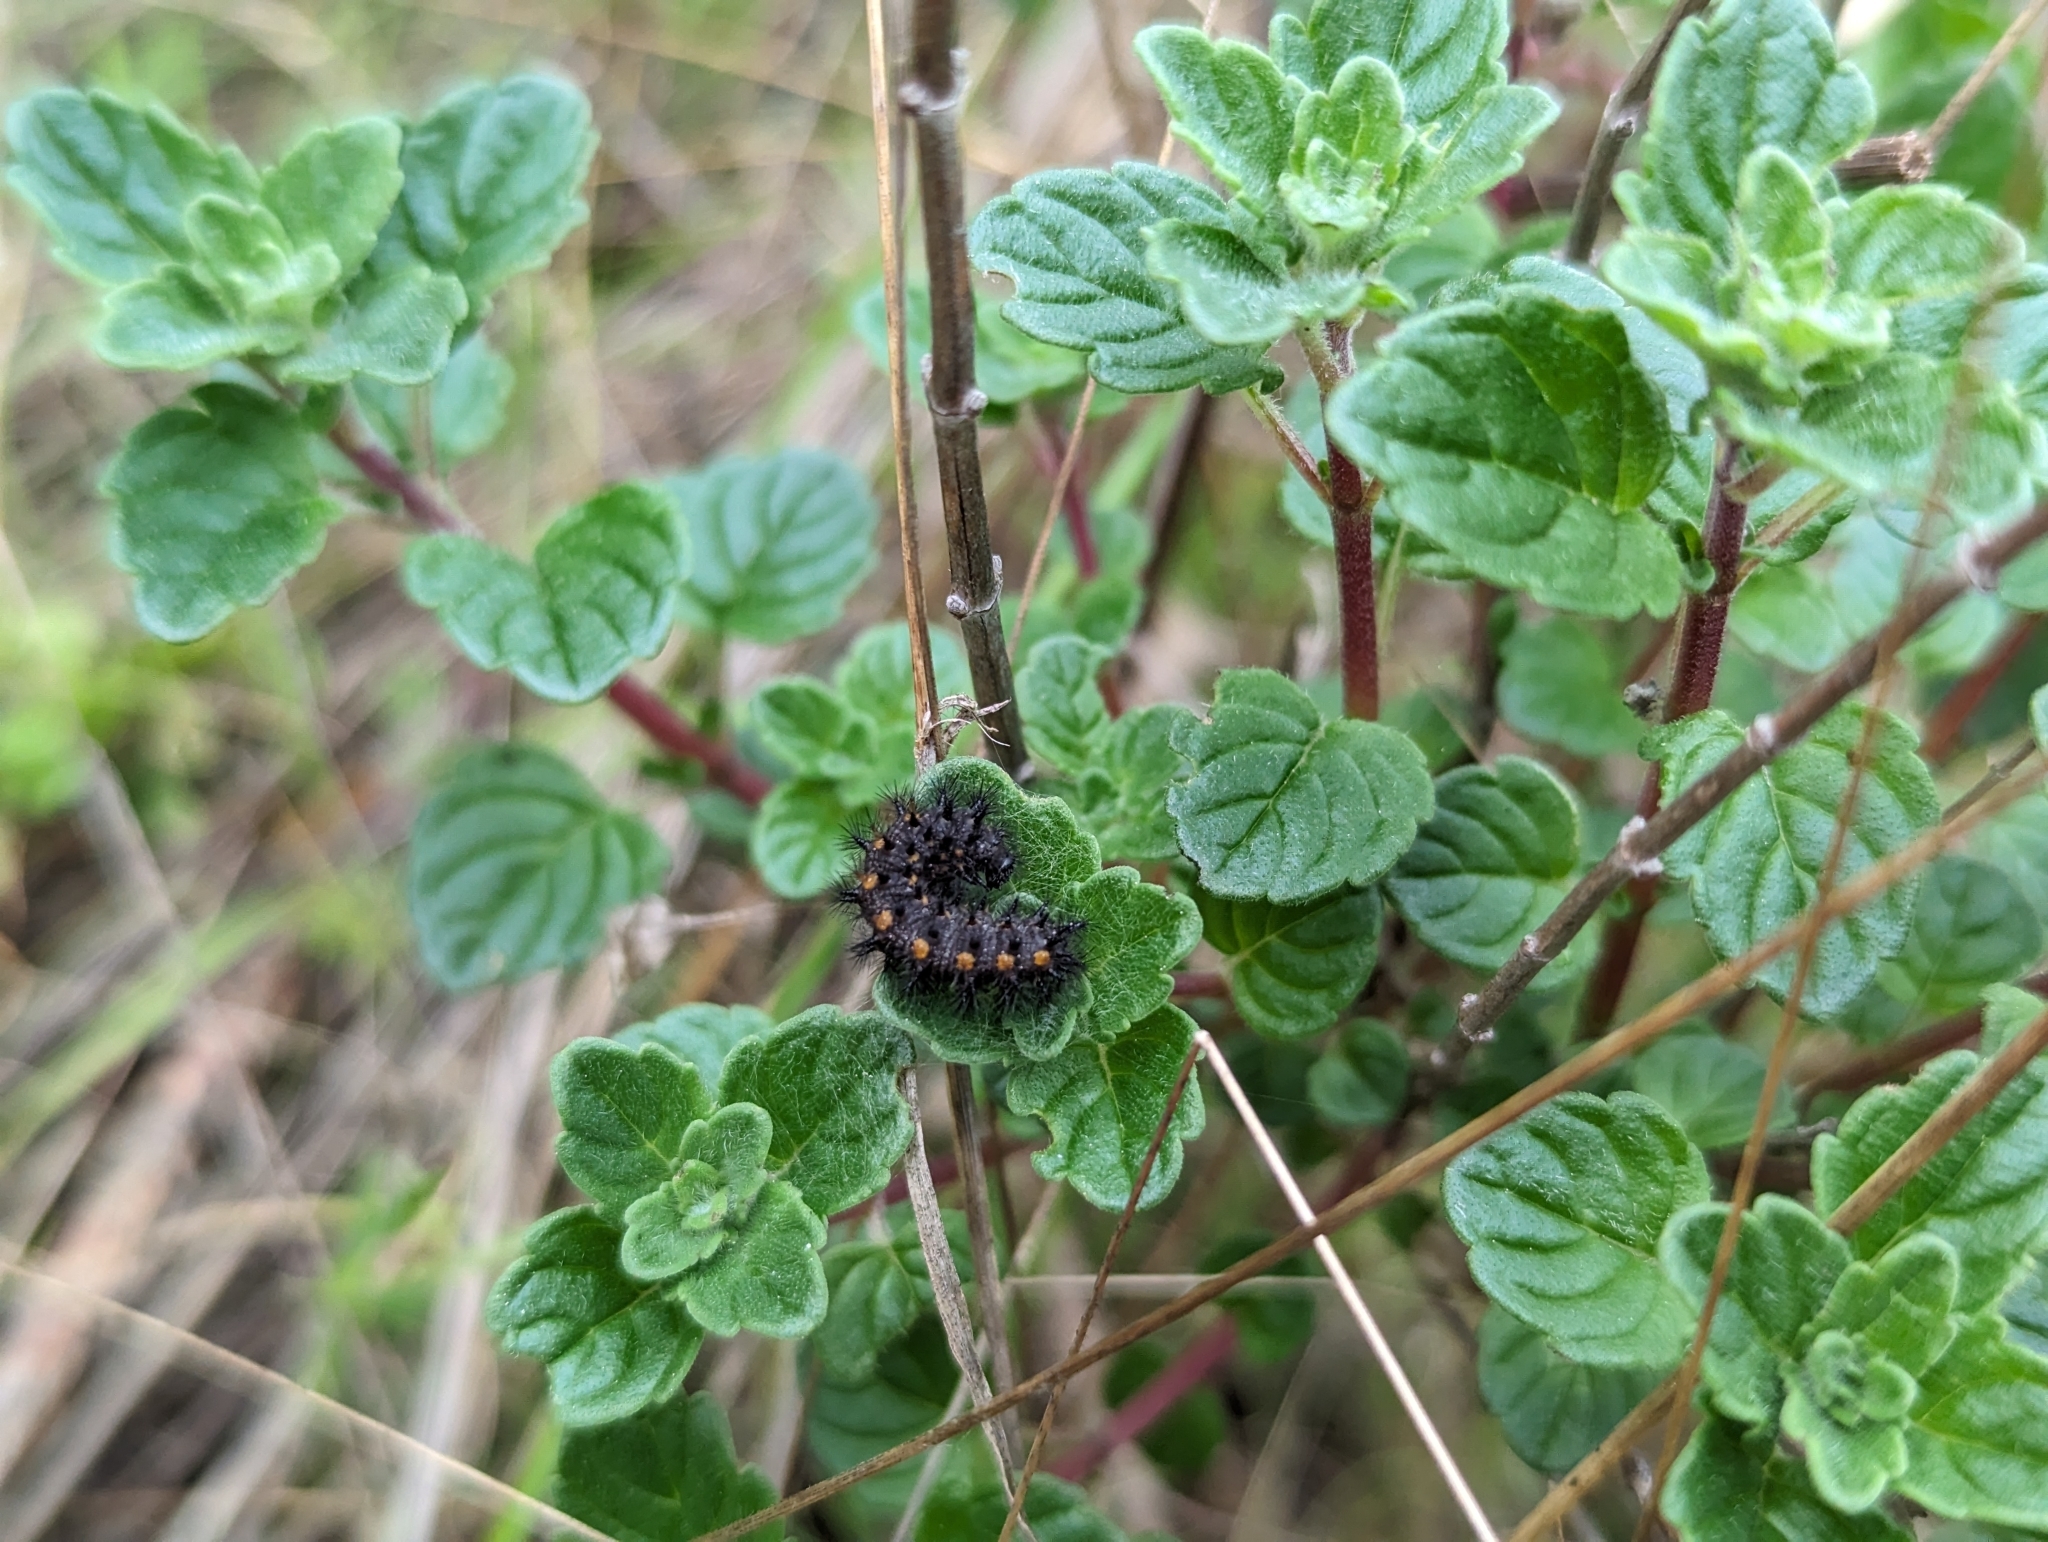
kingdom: Animalia
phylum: Arthropoda
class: Insecta
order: Lepidoptera
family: Nymphalidae
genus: Occidryas
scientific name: Occidryas chalcedona
